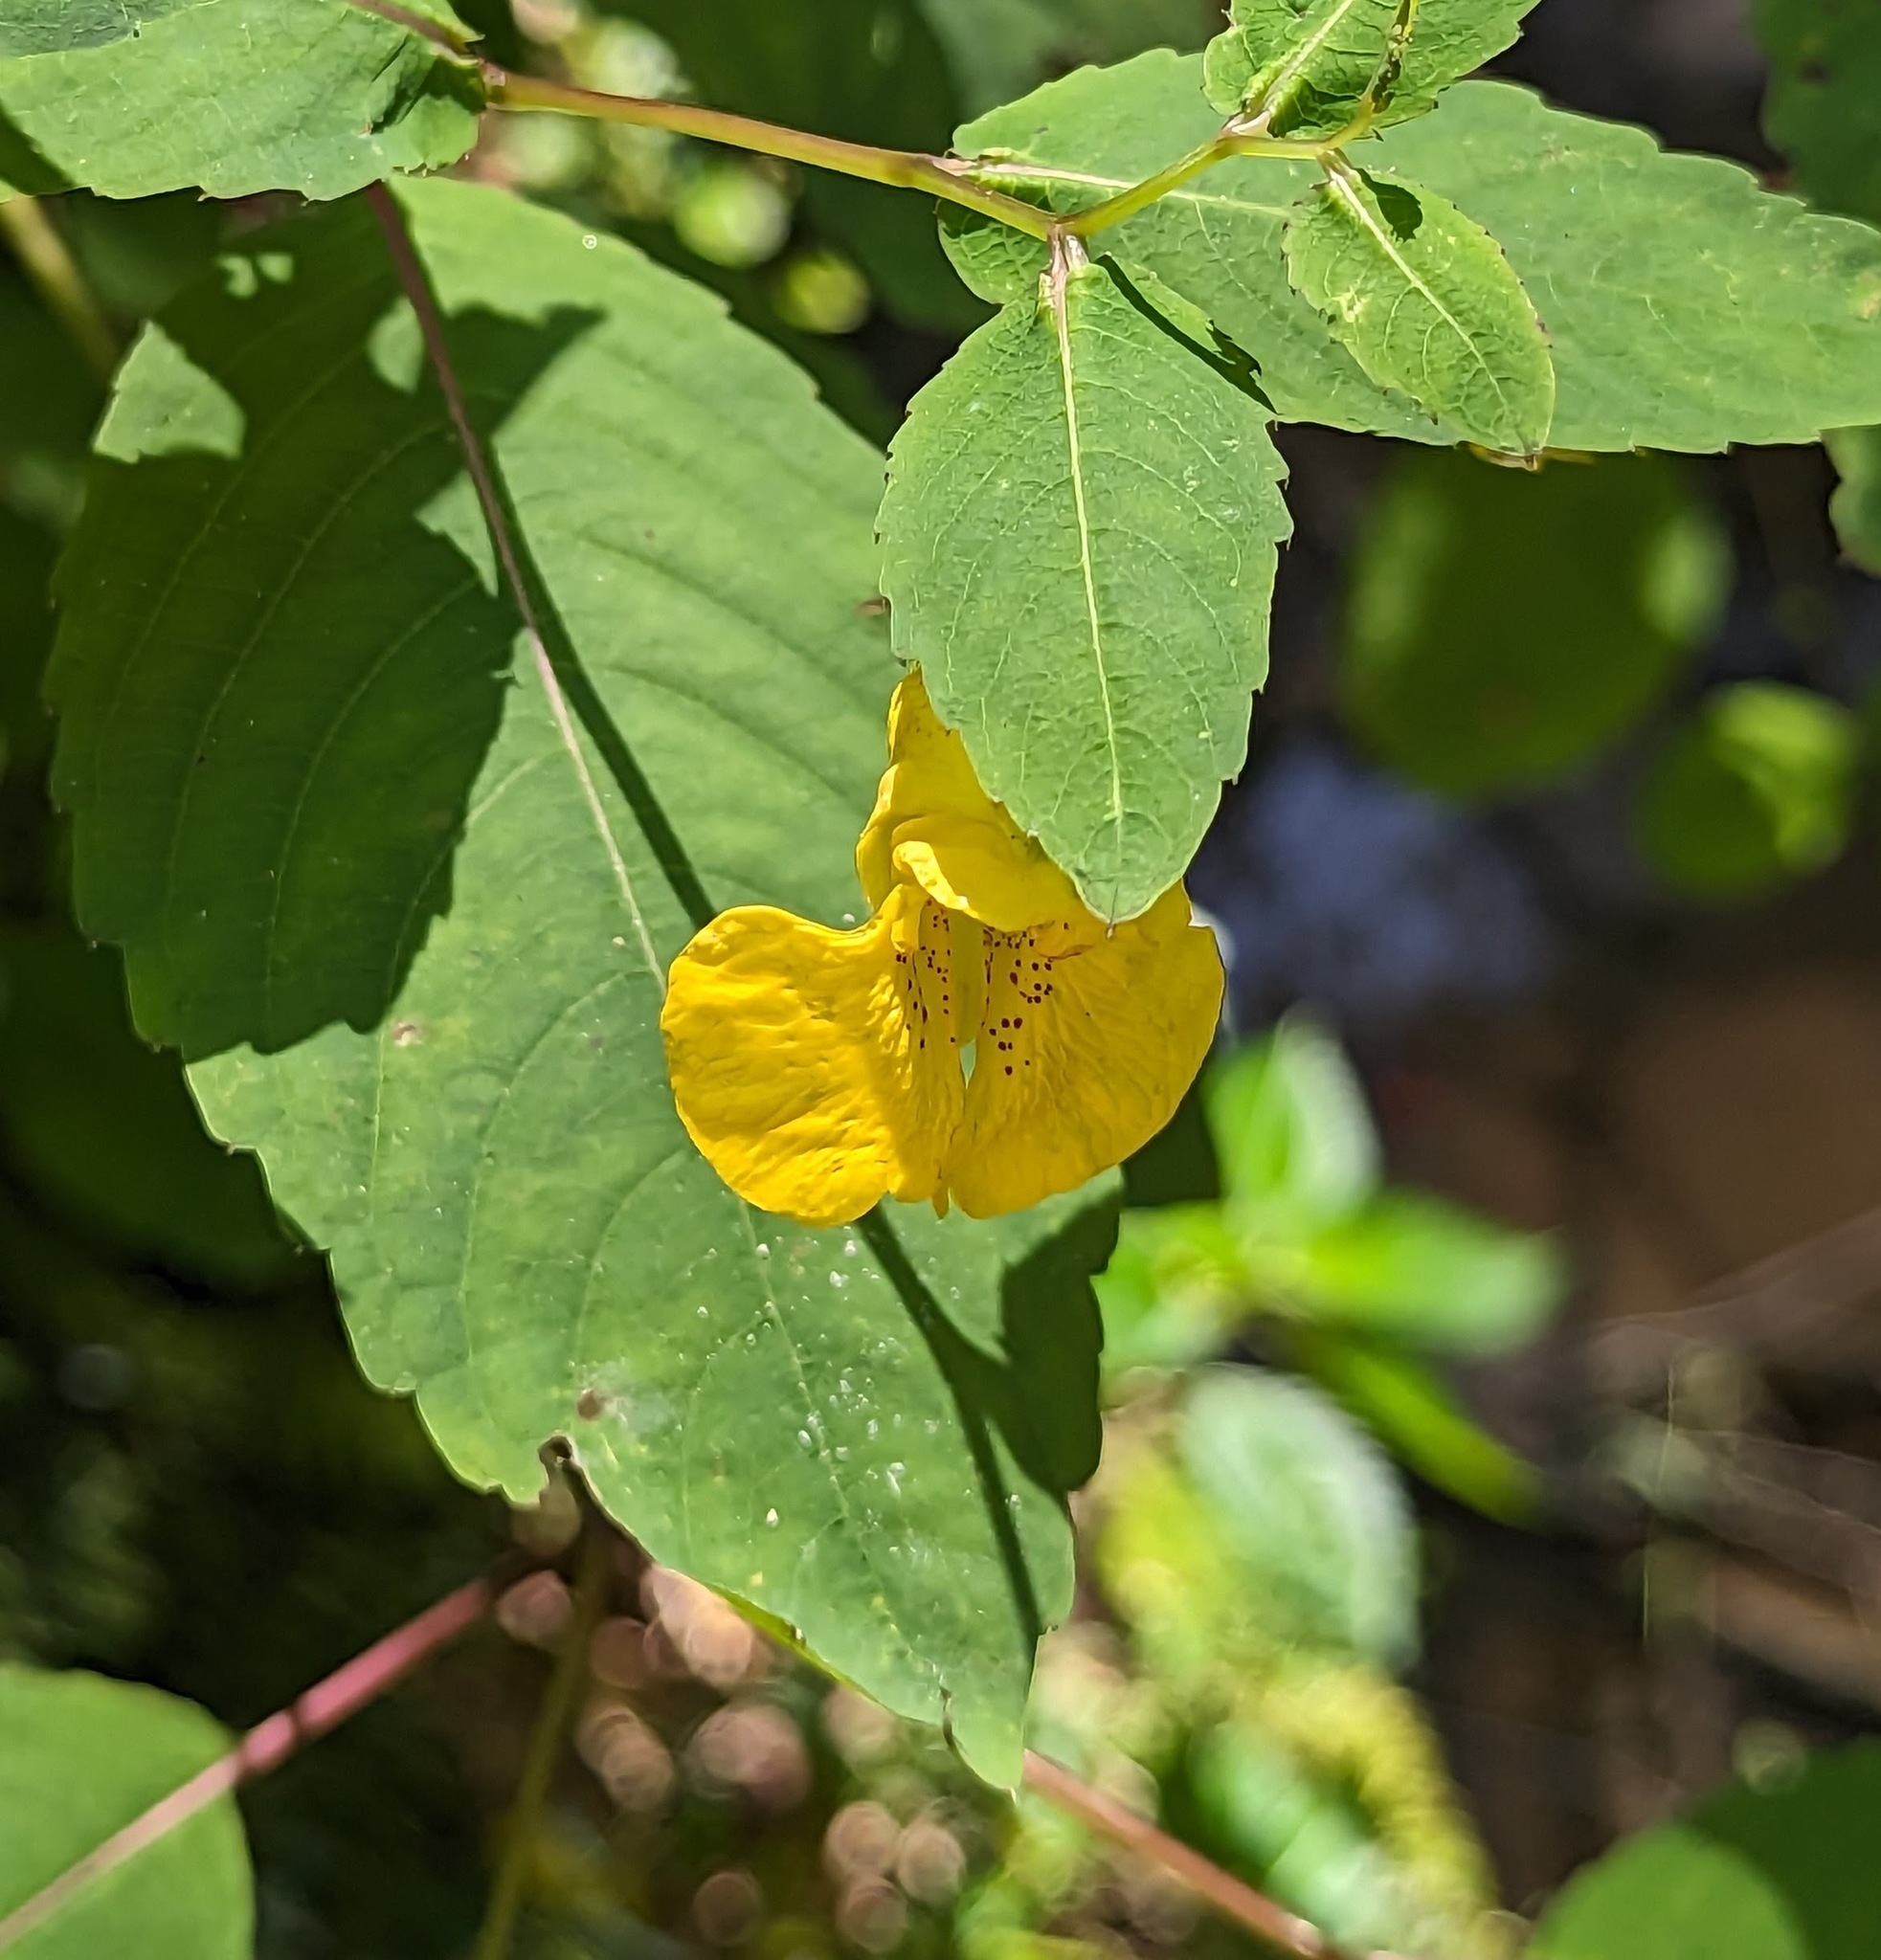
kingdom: Plantae
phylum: Tracheophyta
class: Magnoliopsida
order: Ericales
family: Balsaminaceae
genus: Impatiens
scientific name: Impatiens pallida
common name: Pale snapweed
